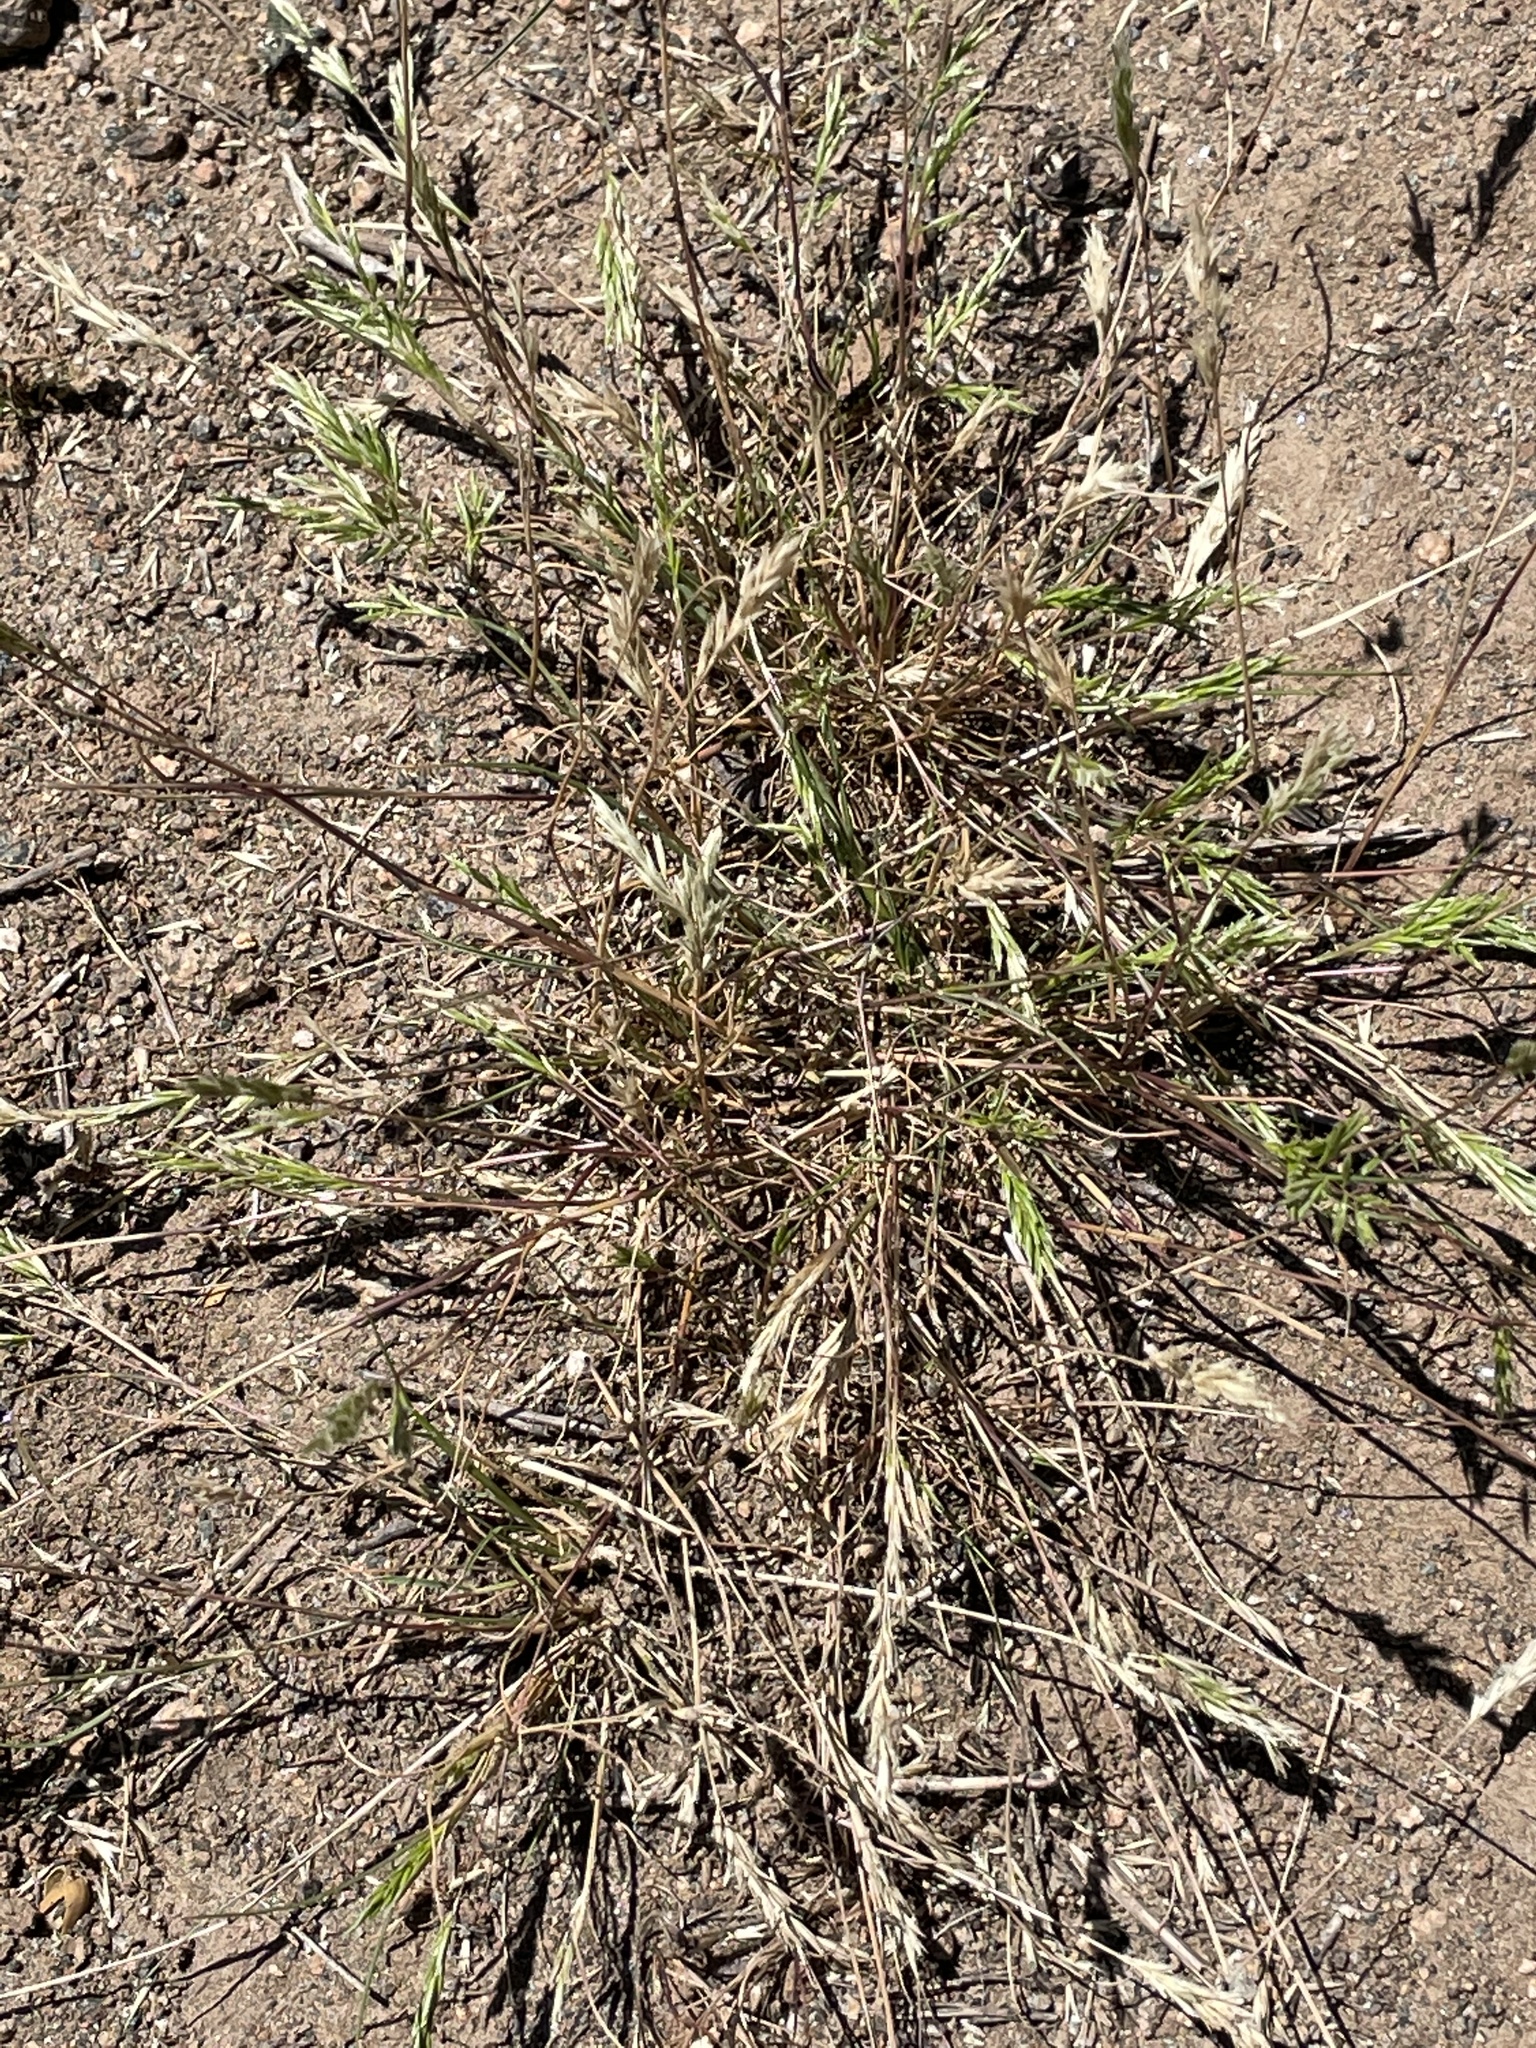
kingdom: Plantae
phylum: Tracheophyta
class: Liliopsida
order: Poales
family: Poaceae
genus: Schismus
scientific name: Schismus barbatus
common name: Kelch-grass
